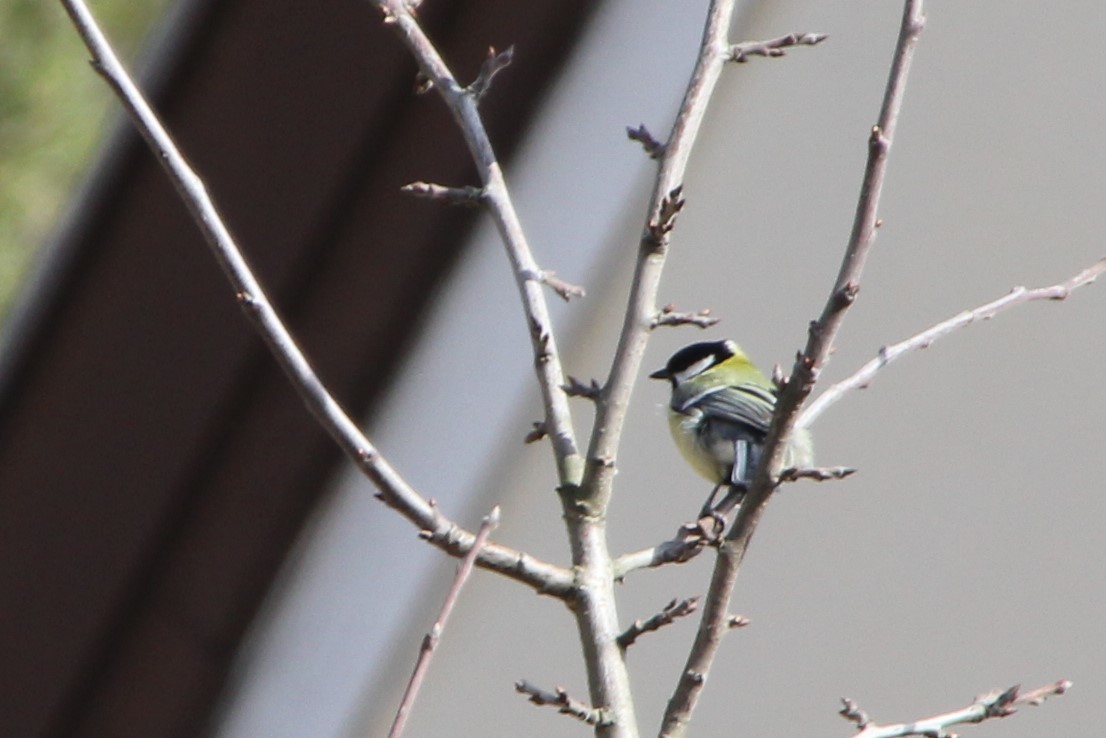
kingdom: Animalia
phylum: Chordata
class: Aves
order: Passeriformes
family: Paridae
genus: Parus
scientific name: Parus major
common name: Great tit
